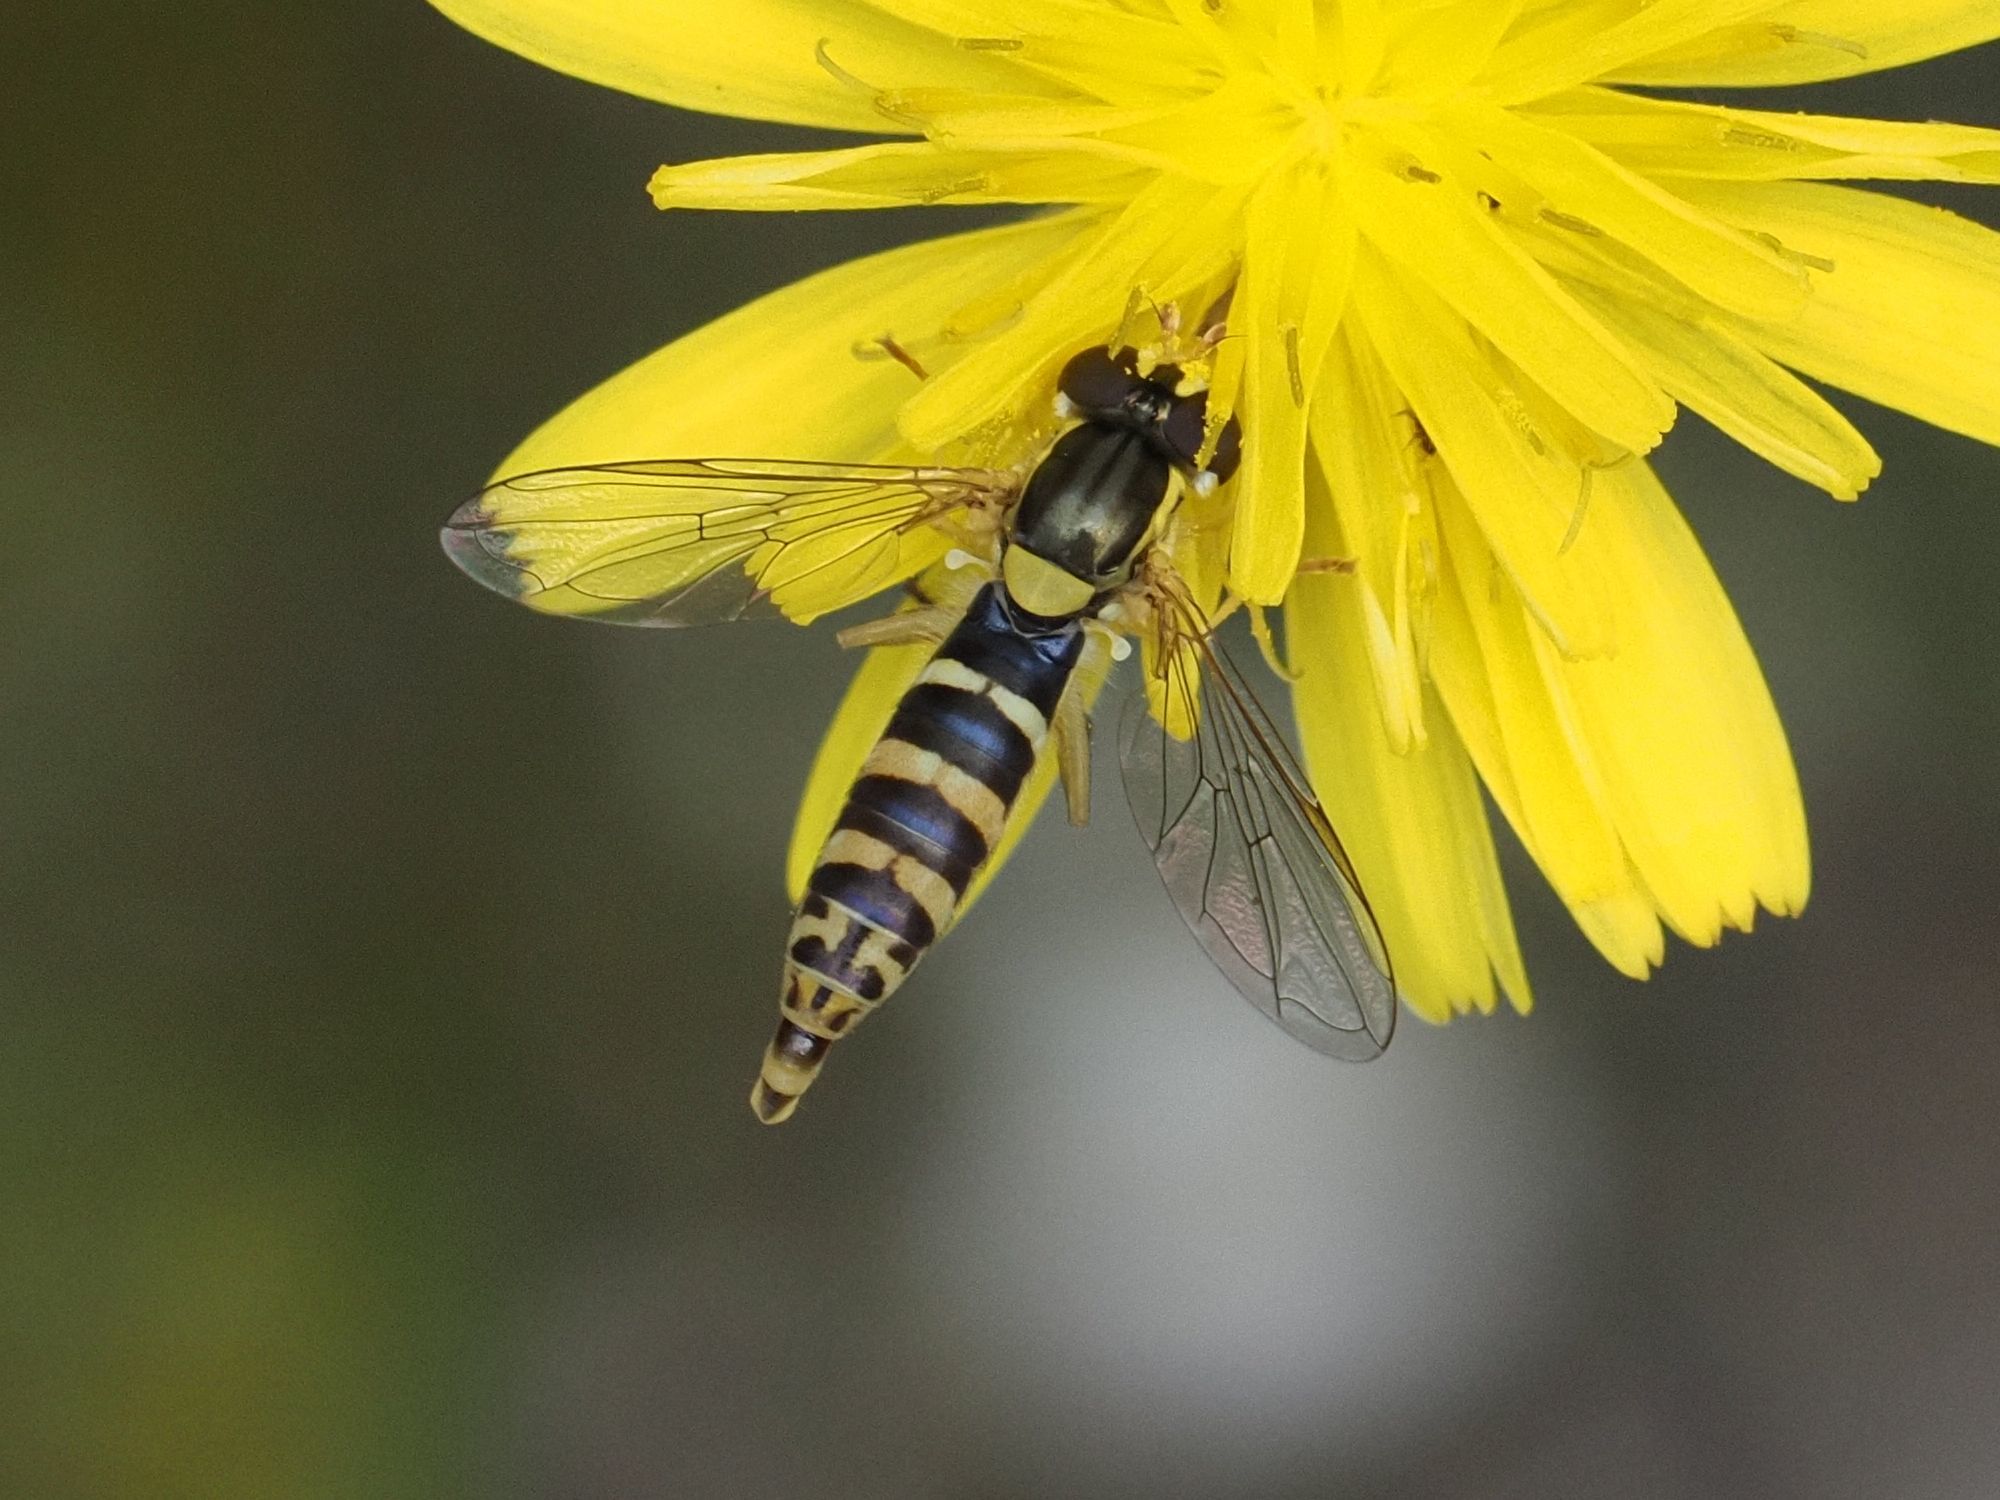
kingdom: Animalia
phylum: Arthropoda
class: Insecta
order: Diptera
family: Syrphidae
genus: Sphaerophoria
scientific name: Sphaerophoria
